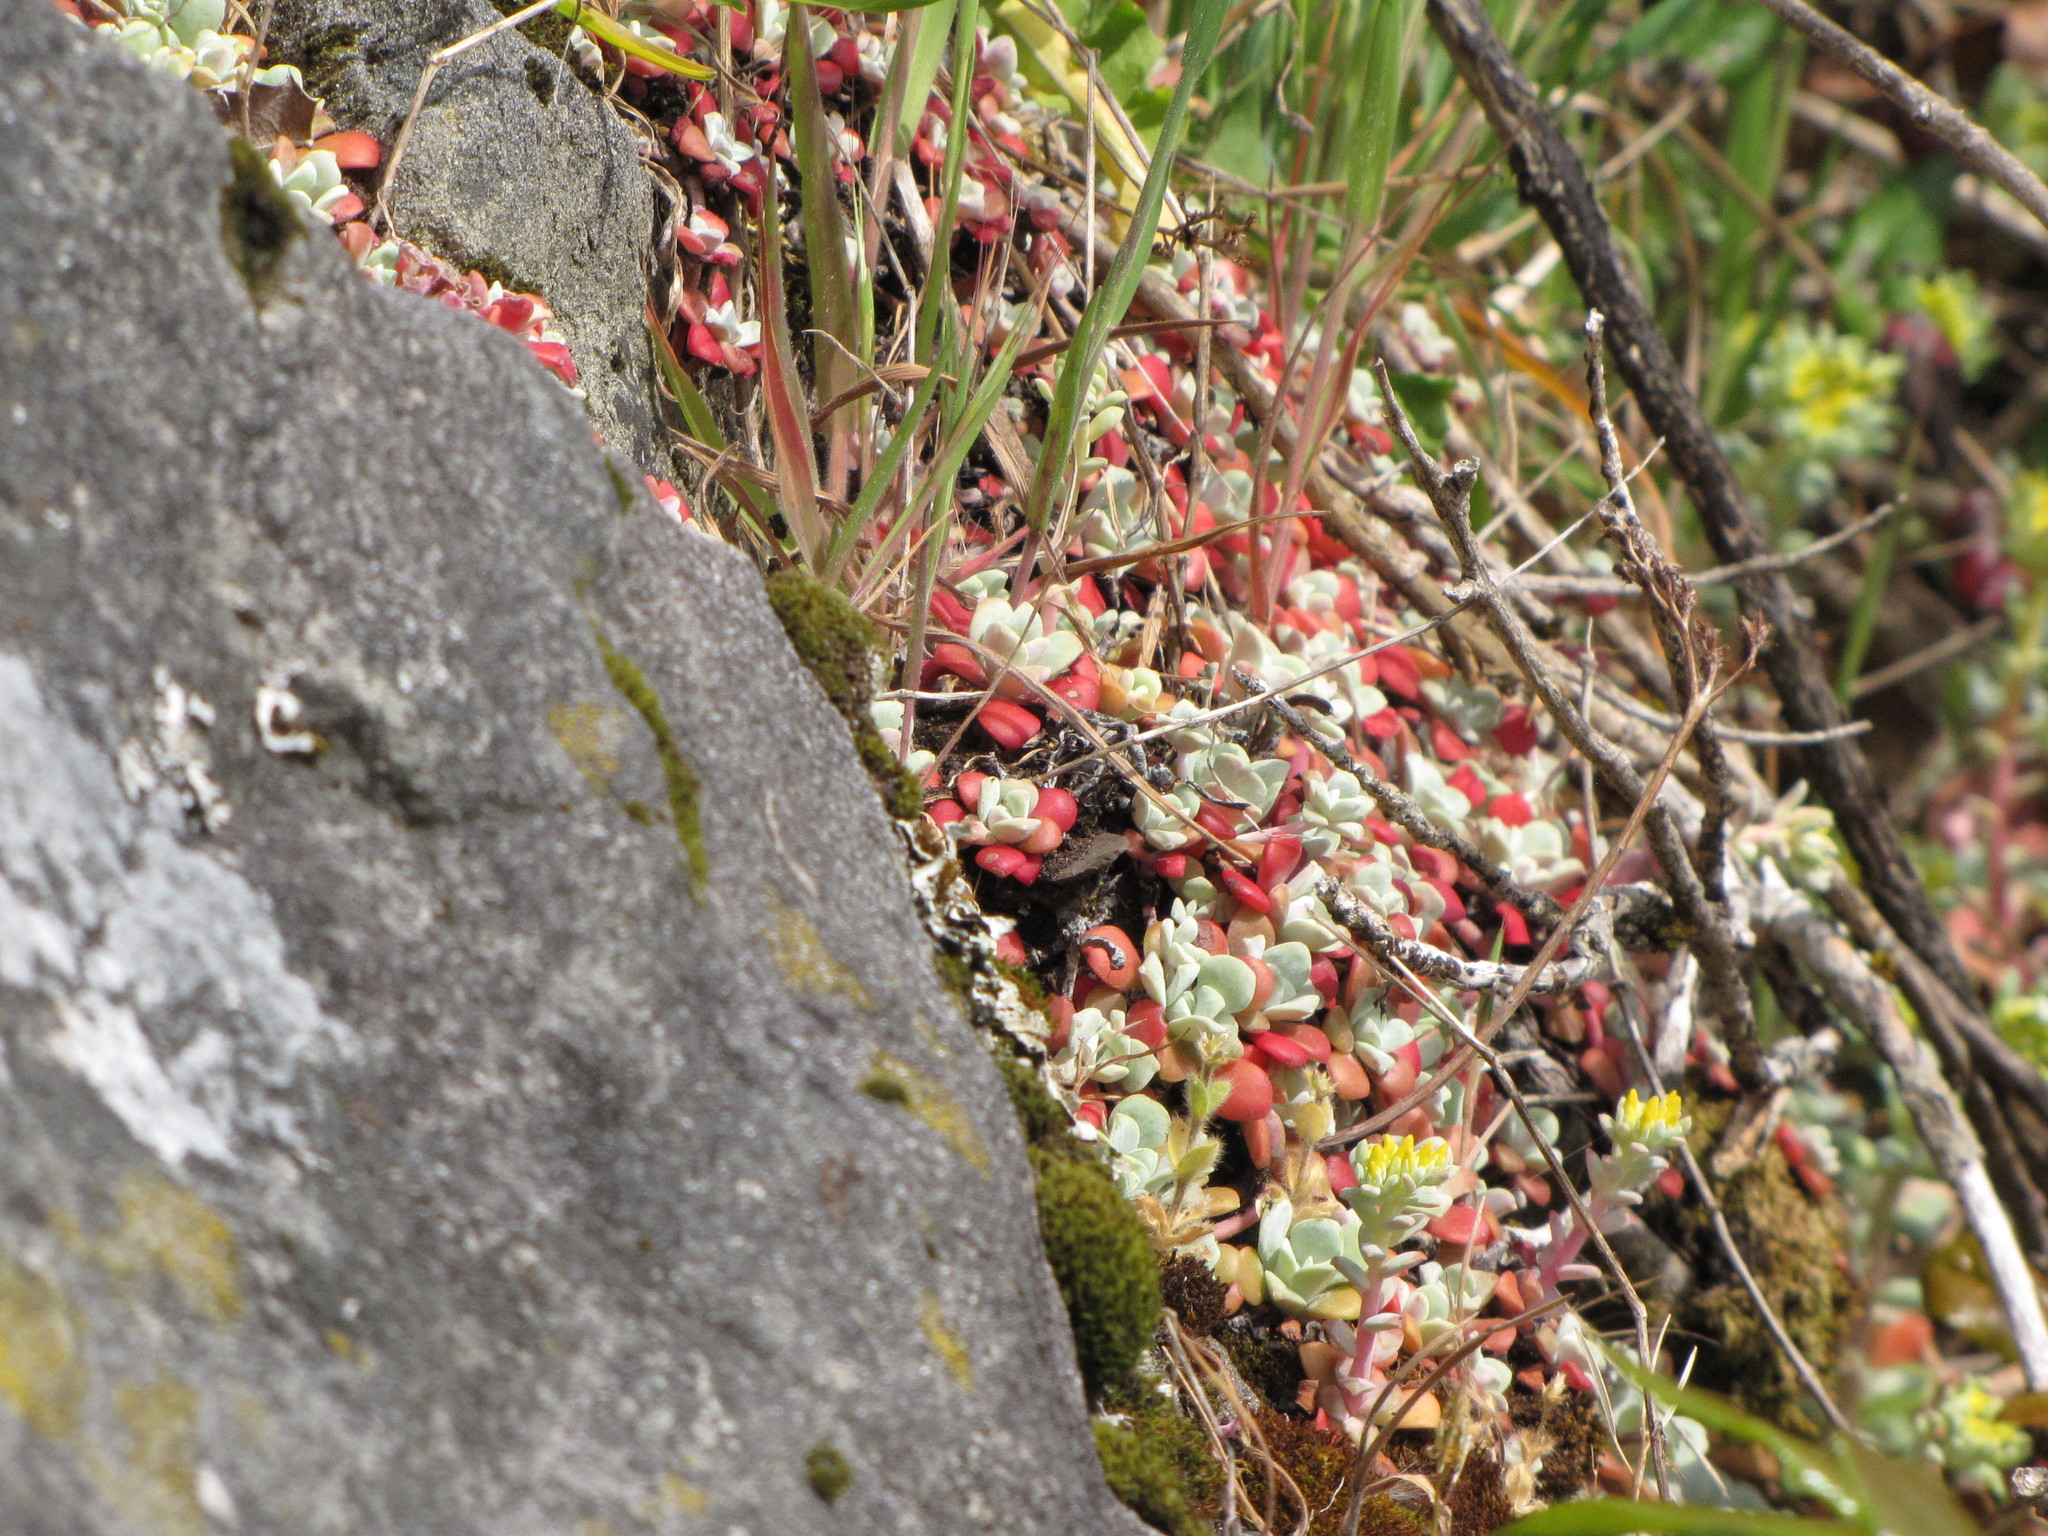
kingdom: Plantae
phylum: Tracheophyta
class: Magnoliopsida
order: Saxifragales
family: Crassulaceae
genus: Sedum
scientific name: Sedum spathulifolium
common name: Colorado stonecrop
